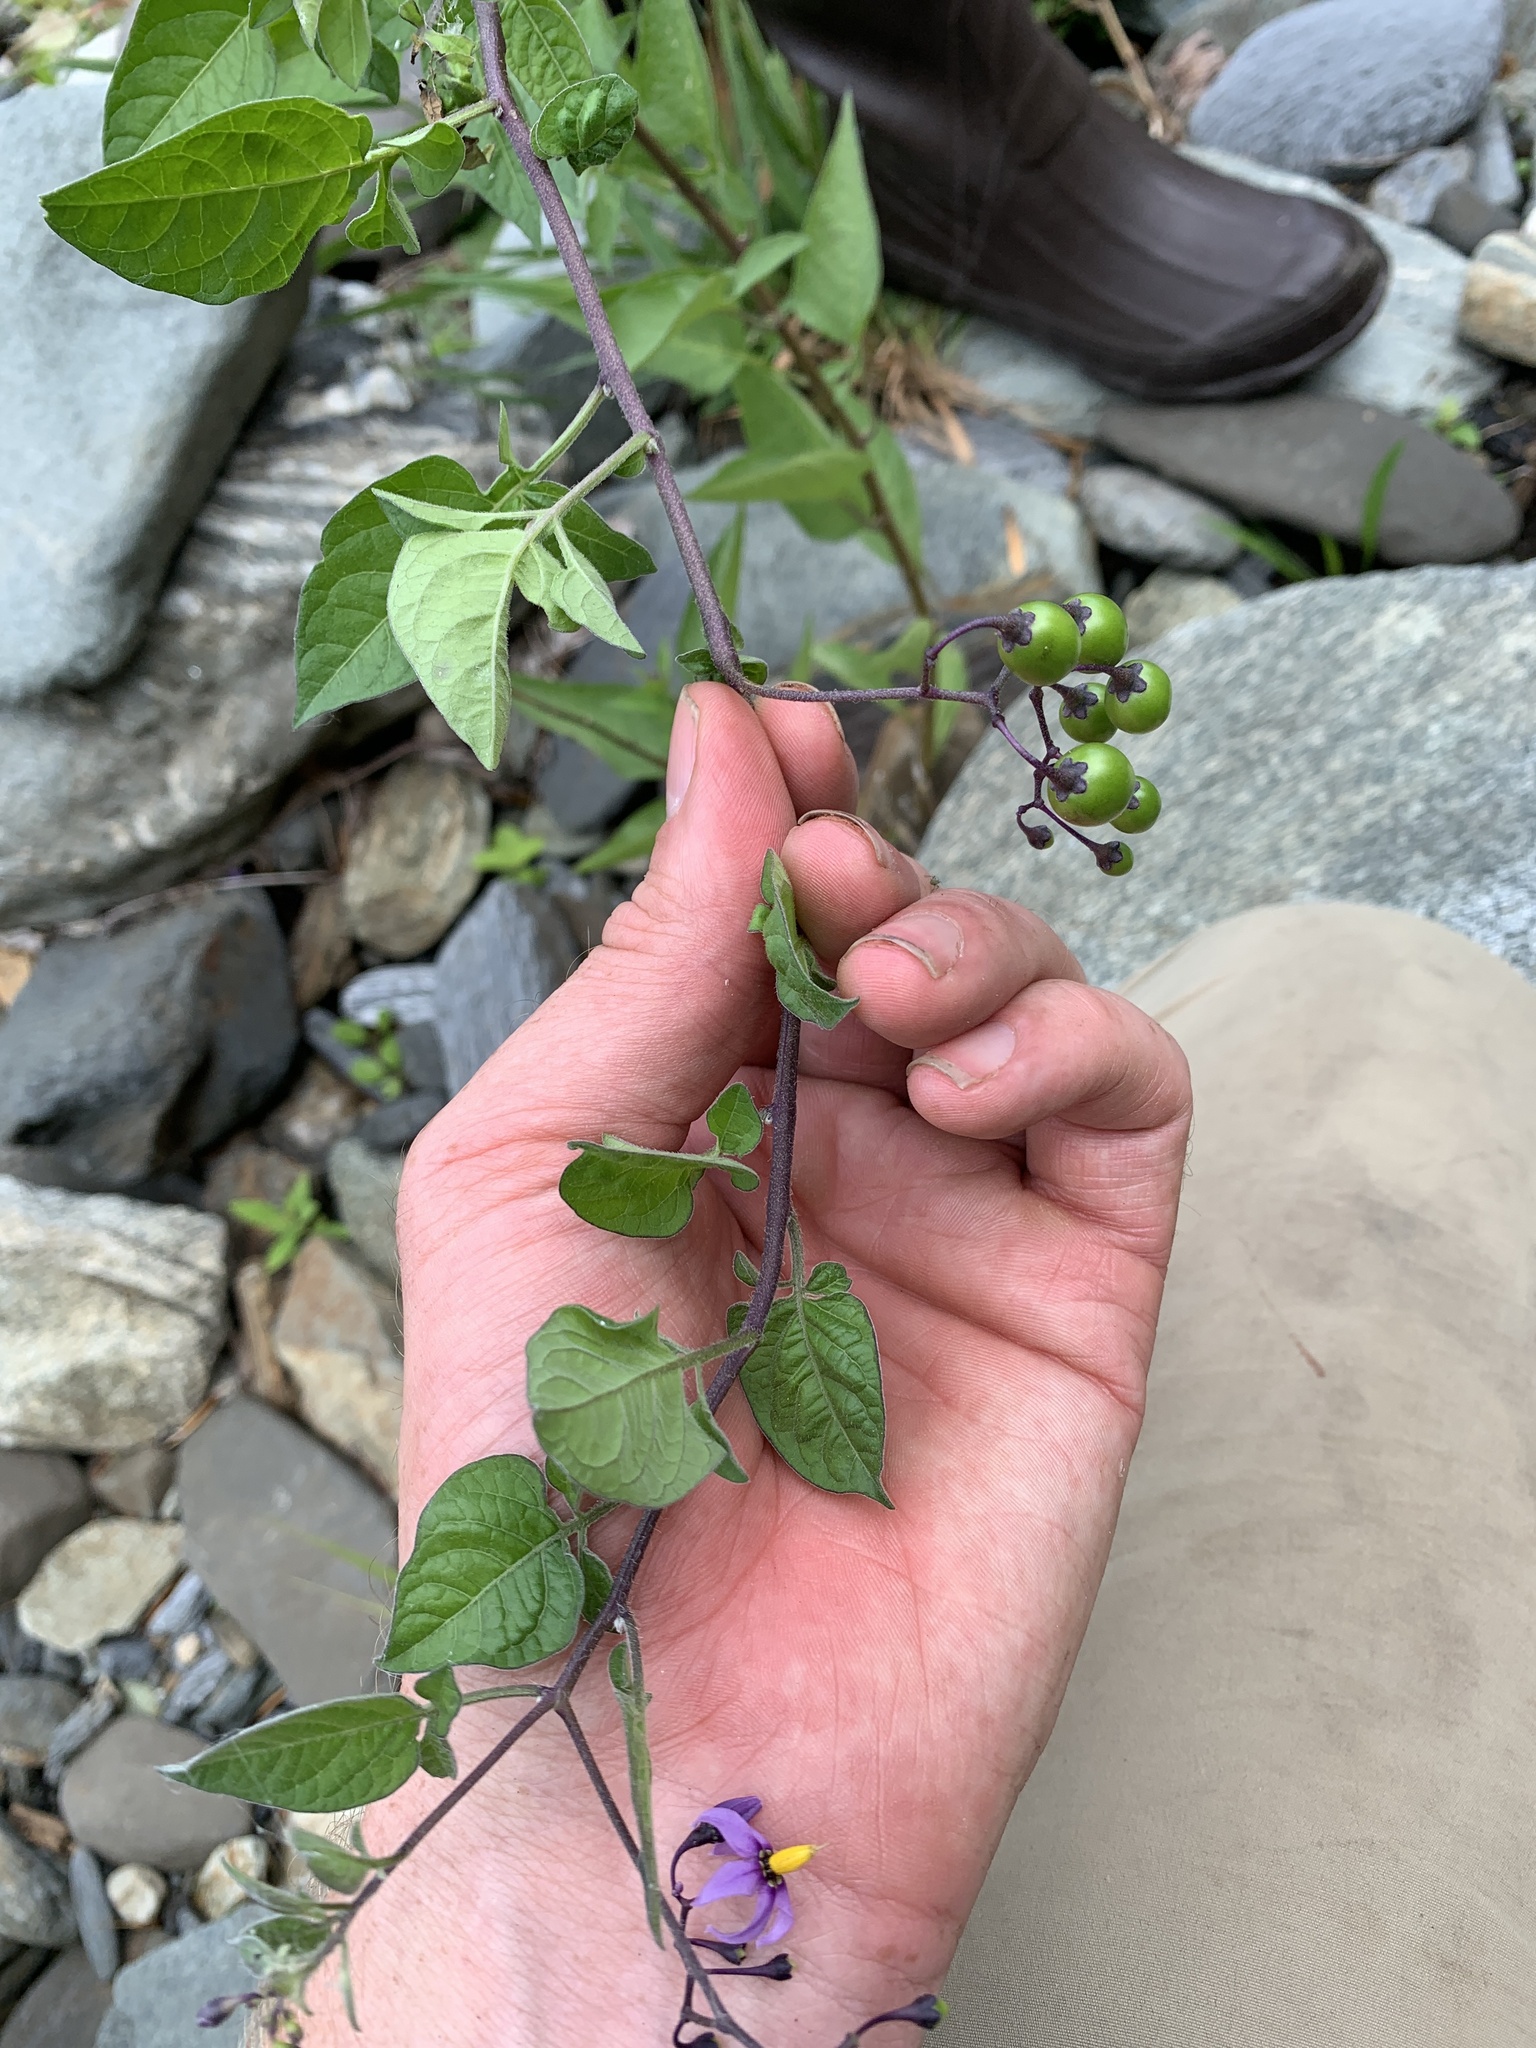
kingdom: Plantae
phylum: Tracheophyta
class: Magnoliopsida
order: Solanales
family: Solanaceae
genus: Solanum
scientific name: Solanum dulcamara
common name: Climbing nightshade
